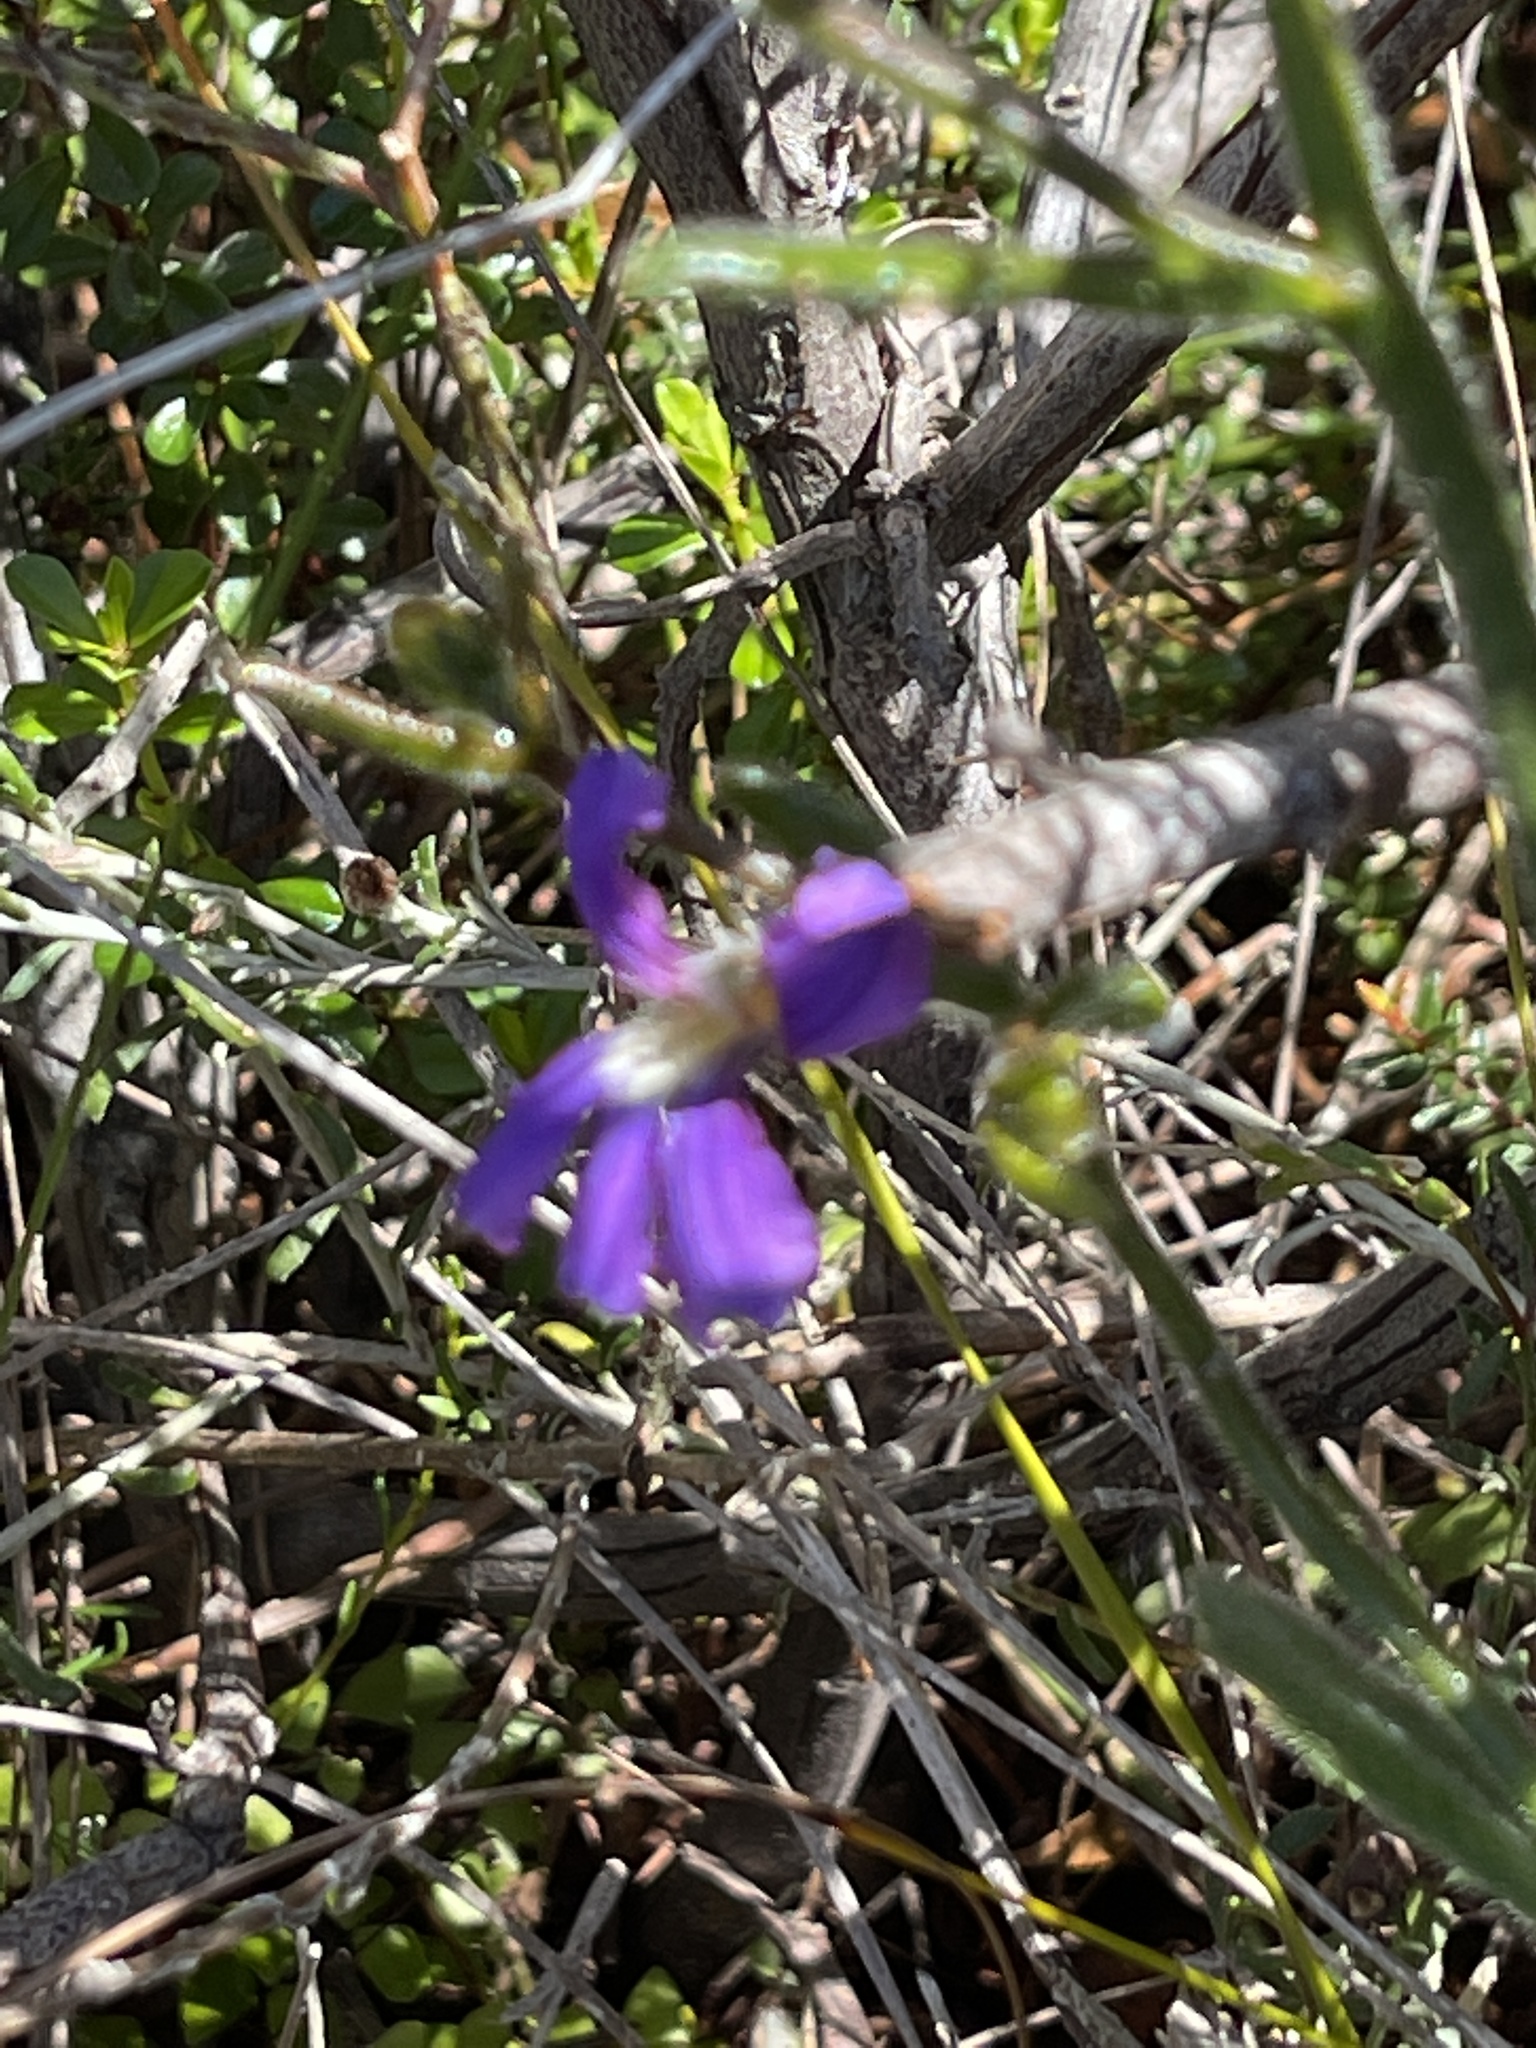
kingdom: Plantae
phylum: Tracheophyta
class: Magnoliopsida
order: Asterales
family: Goodeniaceae
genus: Scaevola
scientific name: Scaevola ramosissima
